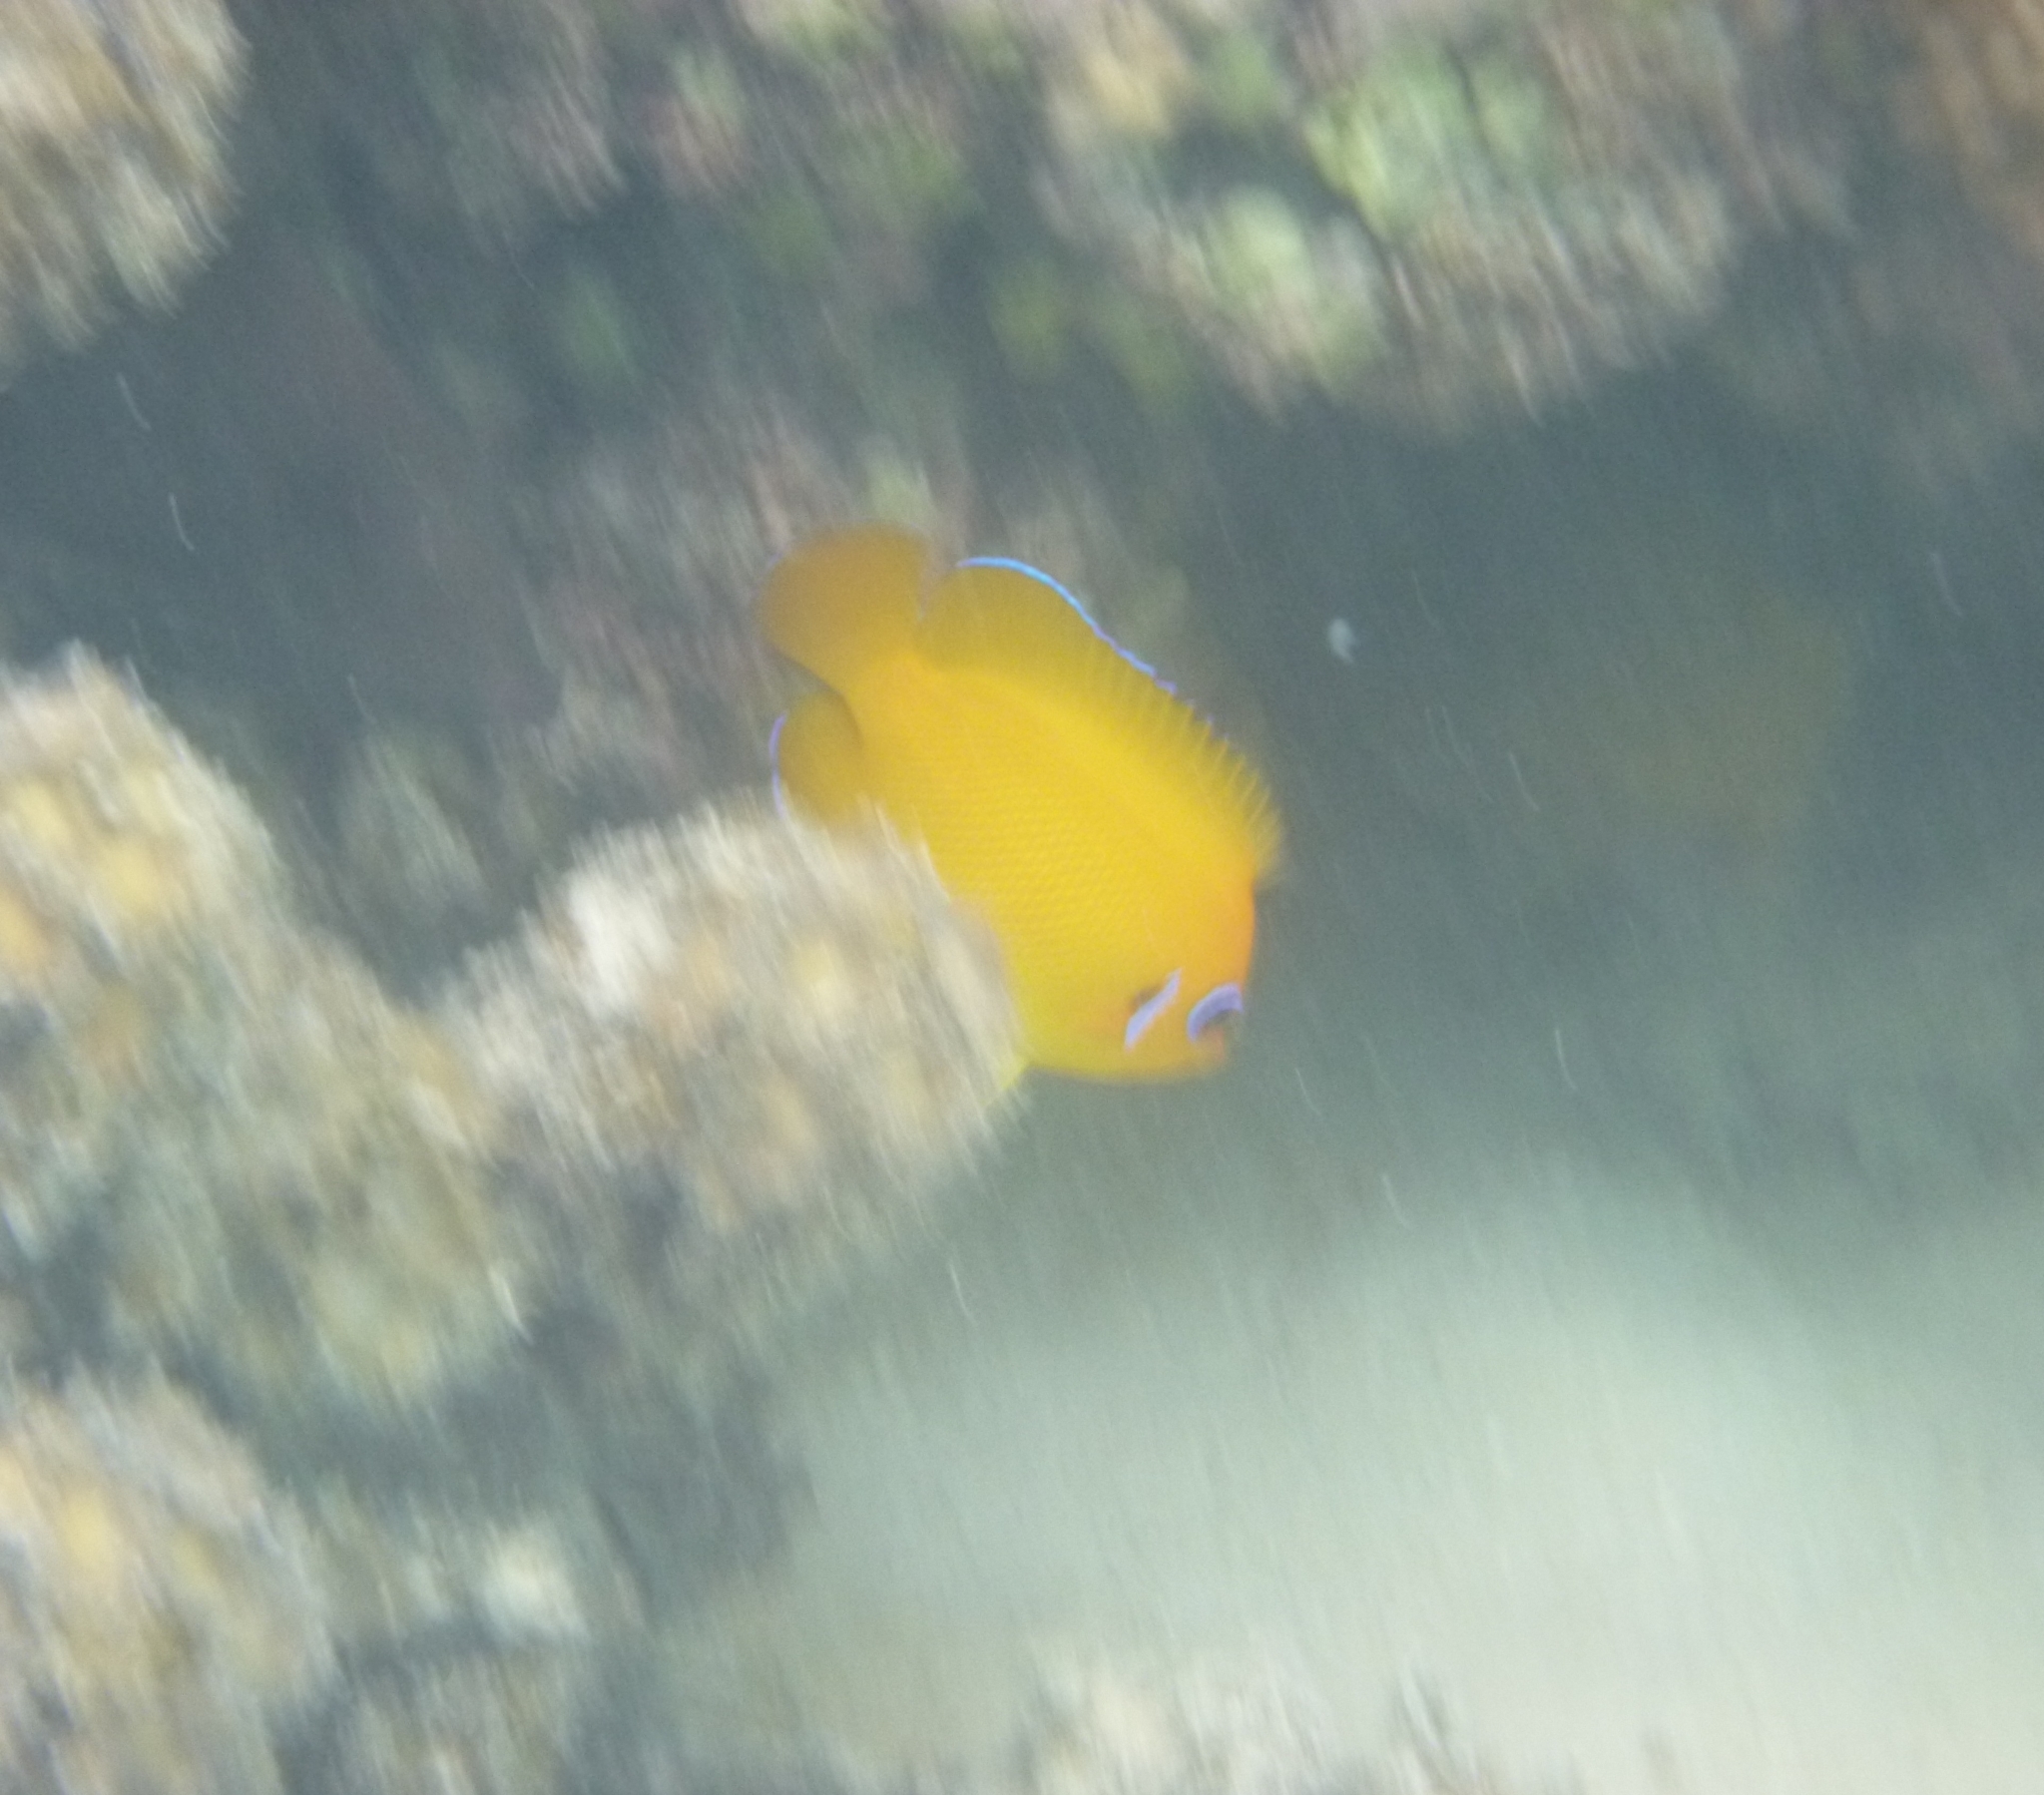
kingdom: Animalia
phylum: Chordata
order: Perciformes
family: Pomacanthidae
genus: Centropyge
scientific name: Centropyge flavissima
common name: Lemonpeel angelfish
